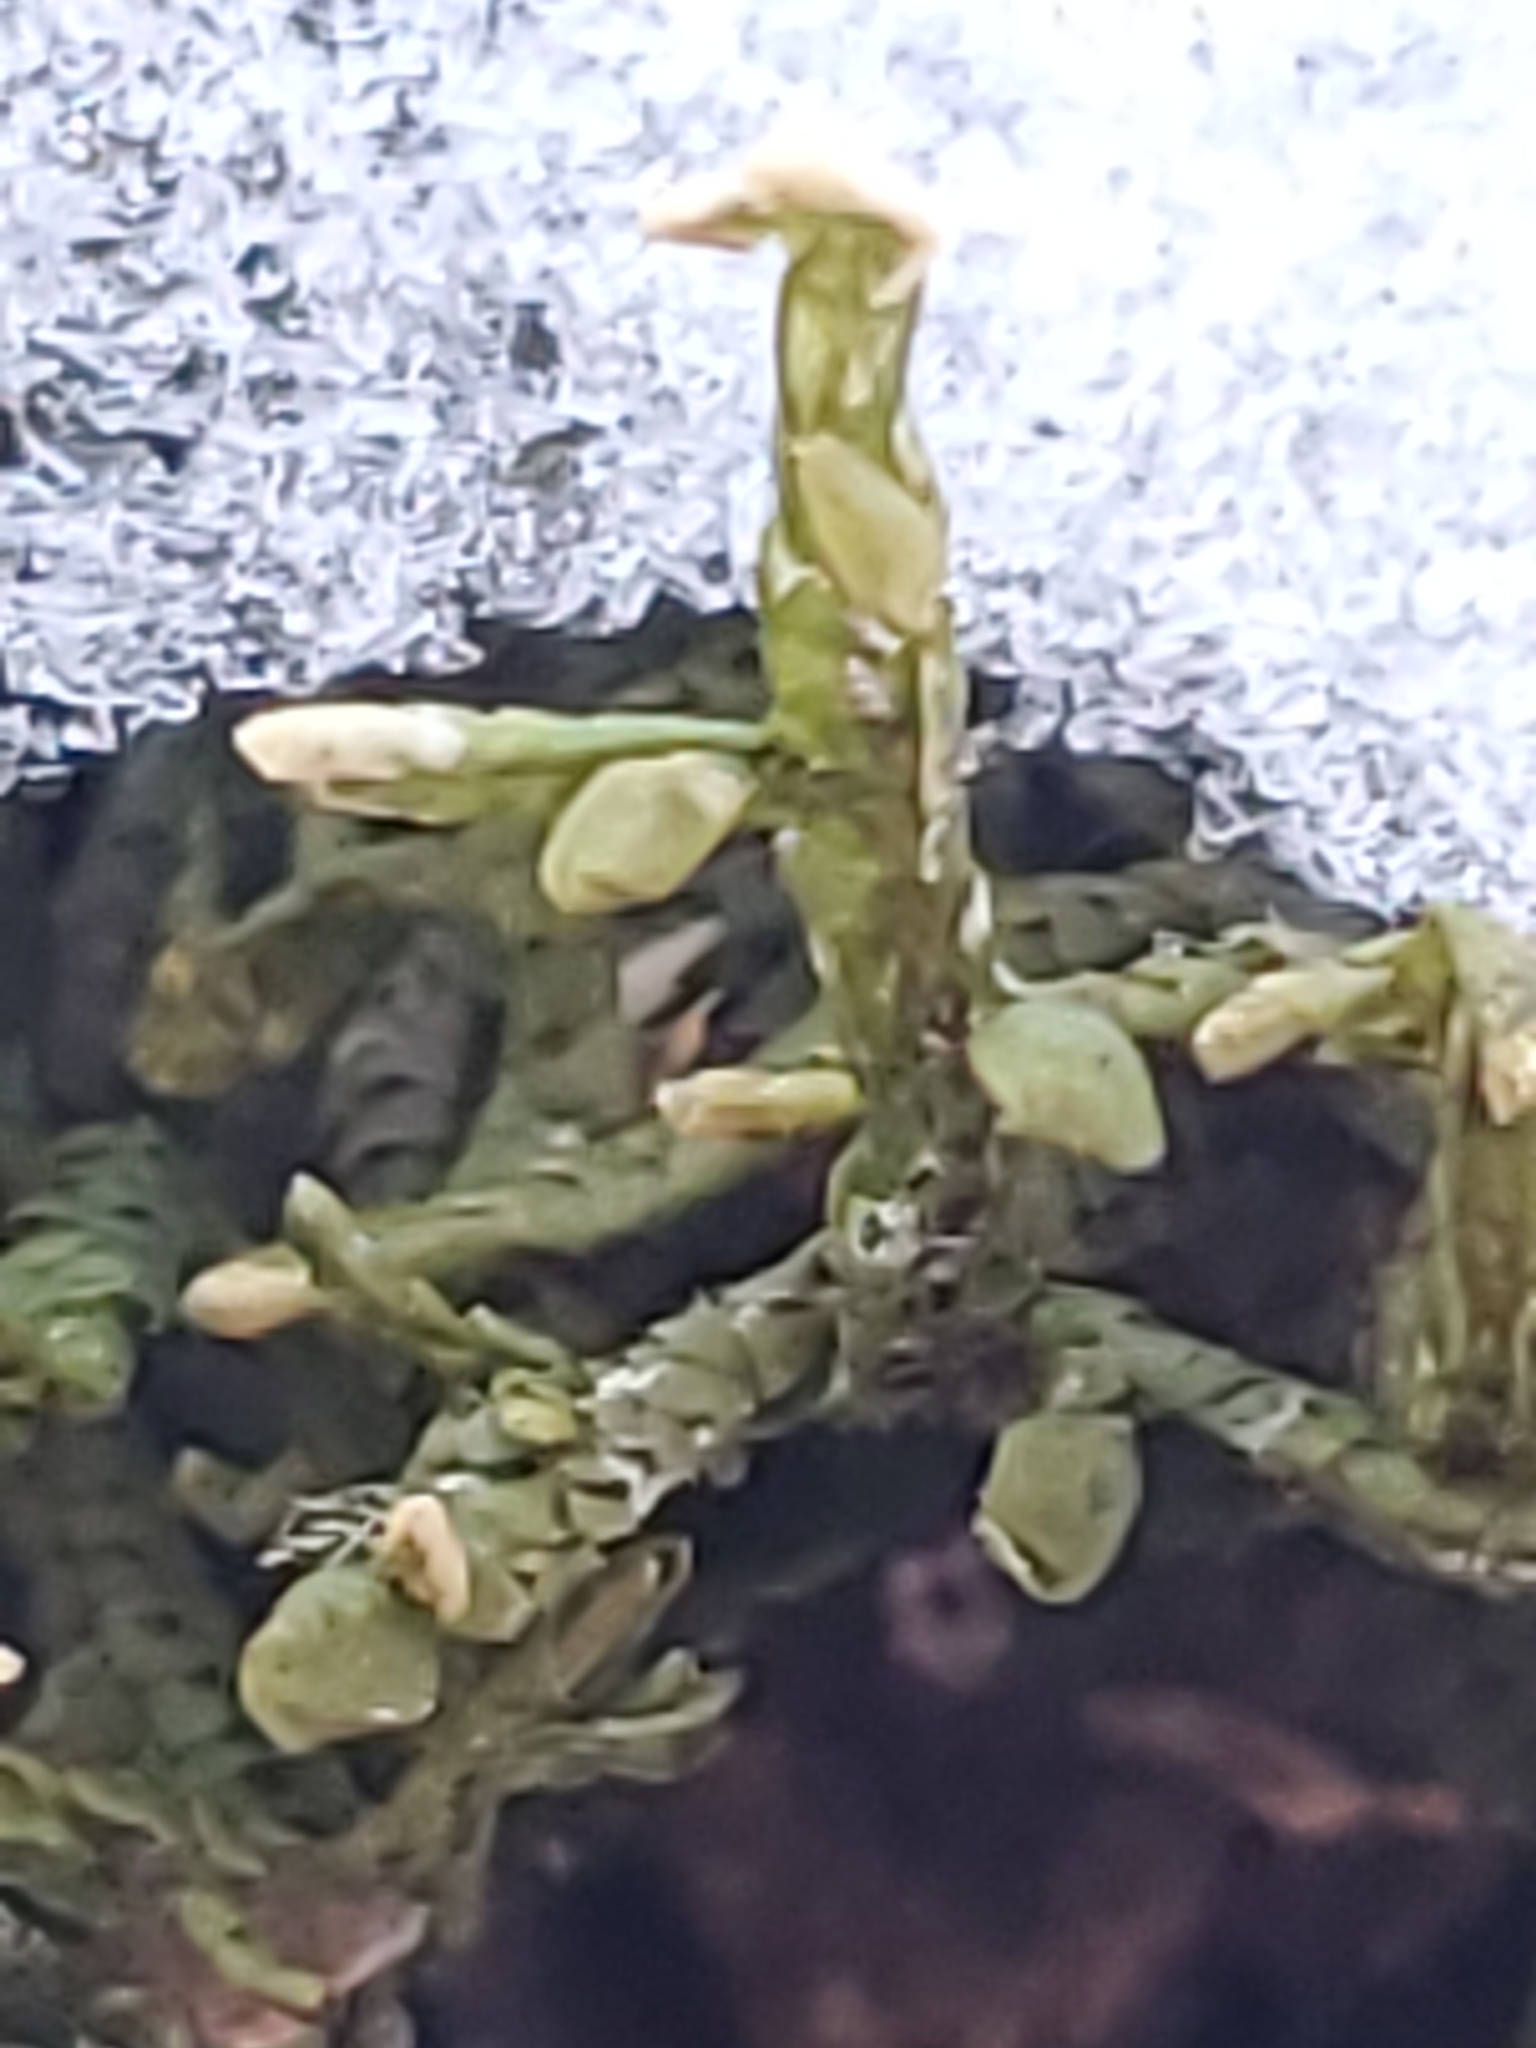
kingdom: Plantae
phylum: Marchantiophyta
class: Jungermanniopsida
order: Porellales
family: Porellaceae
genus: Porella
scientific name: Porella platyphylla
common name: Wall scalewort
